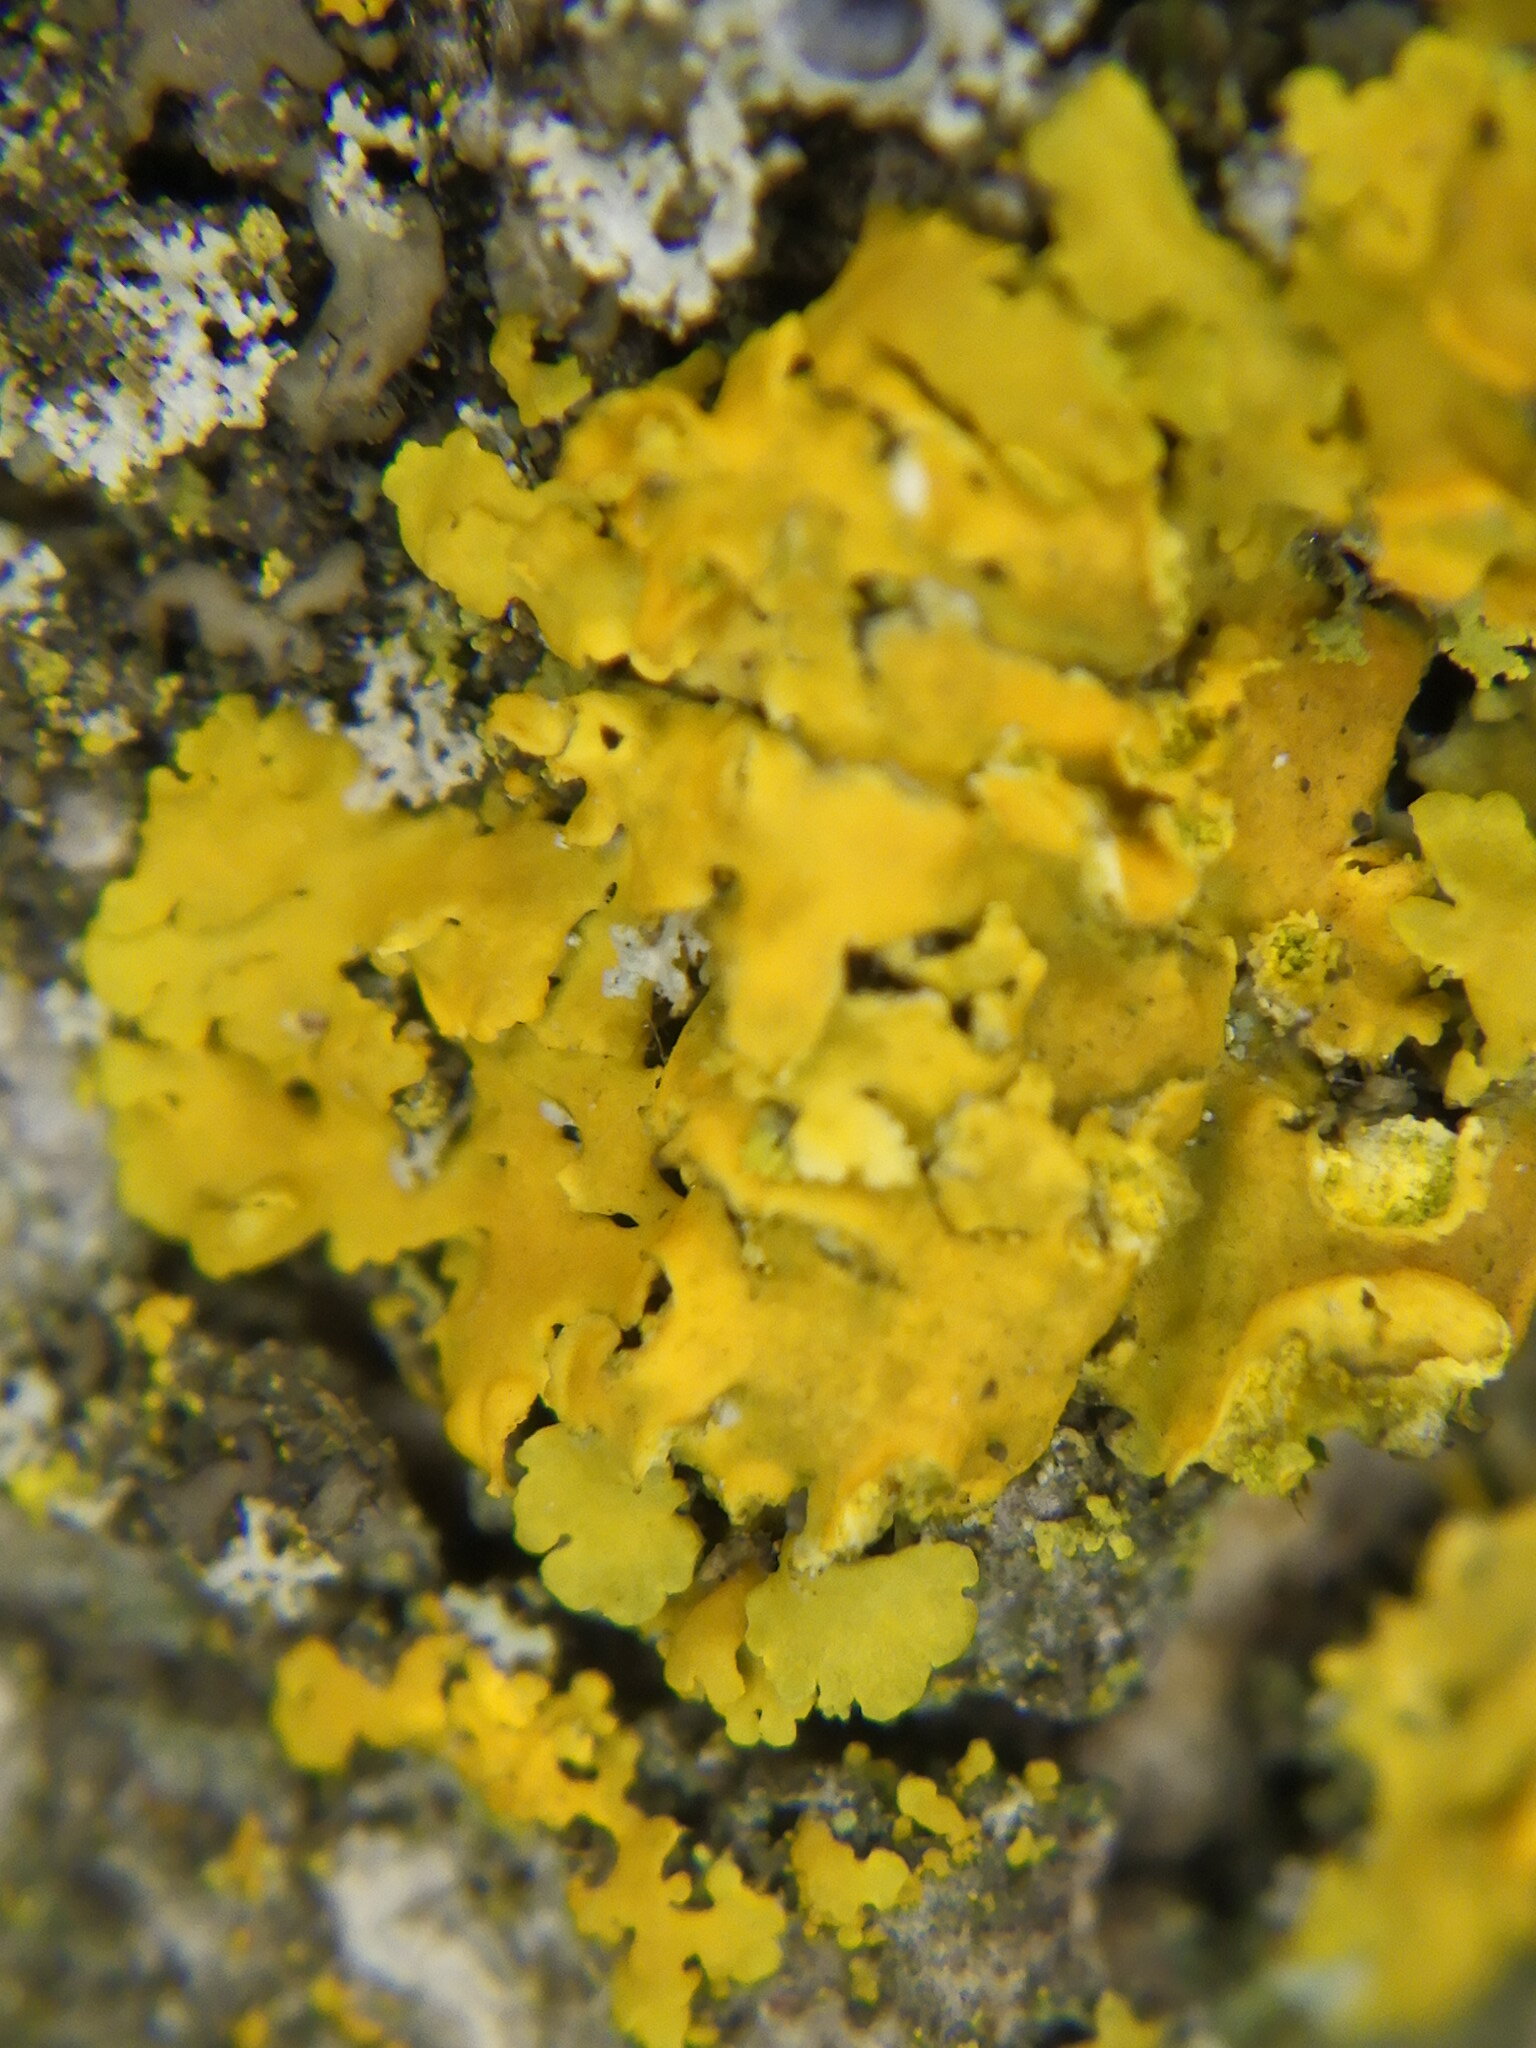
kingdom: Fungi
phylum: Ascomycota
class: Lecanoromycetes
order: Teloschistales
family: Teloschistaceae
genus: Oxneria
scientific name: Oxneria fallax
